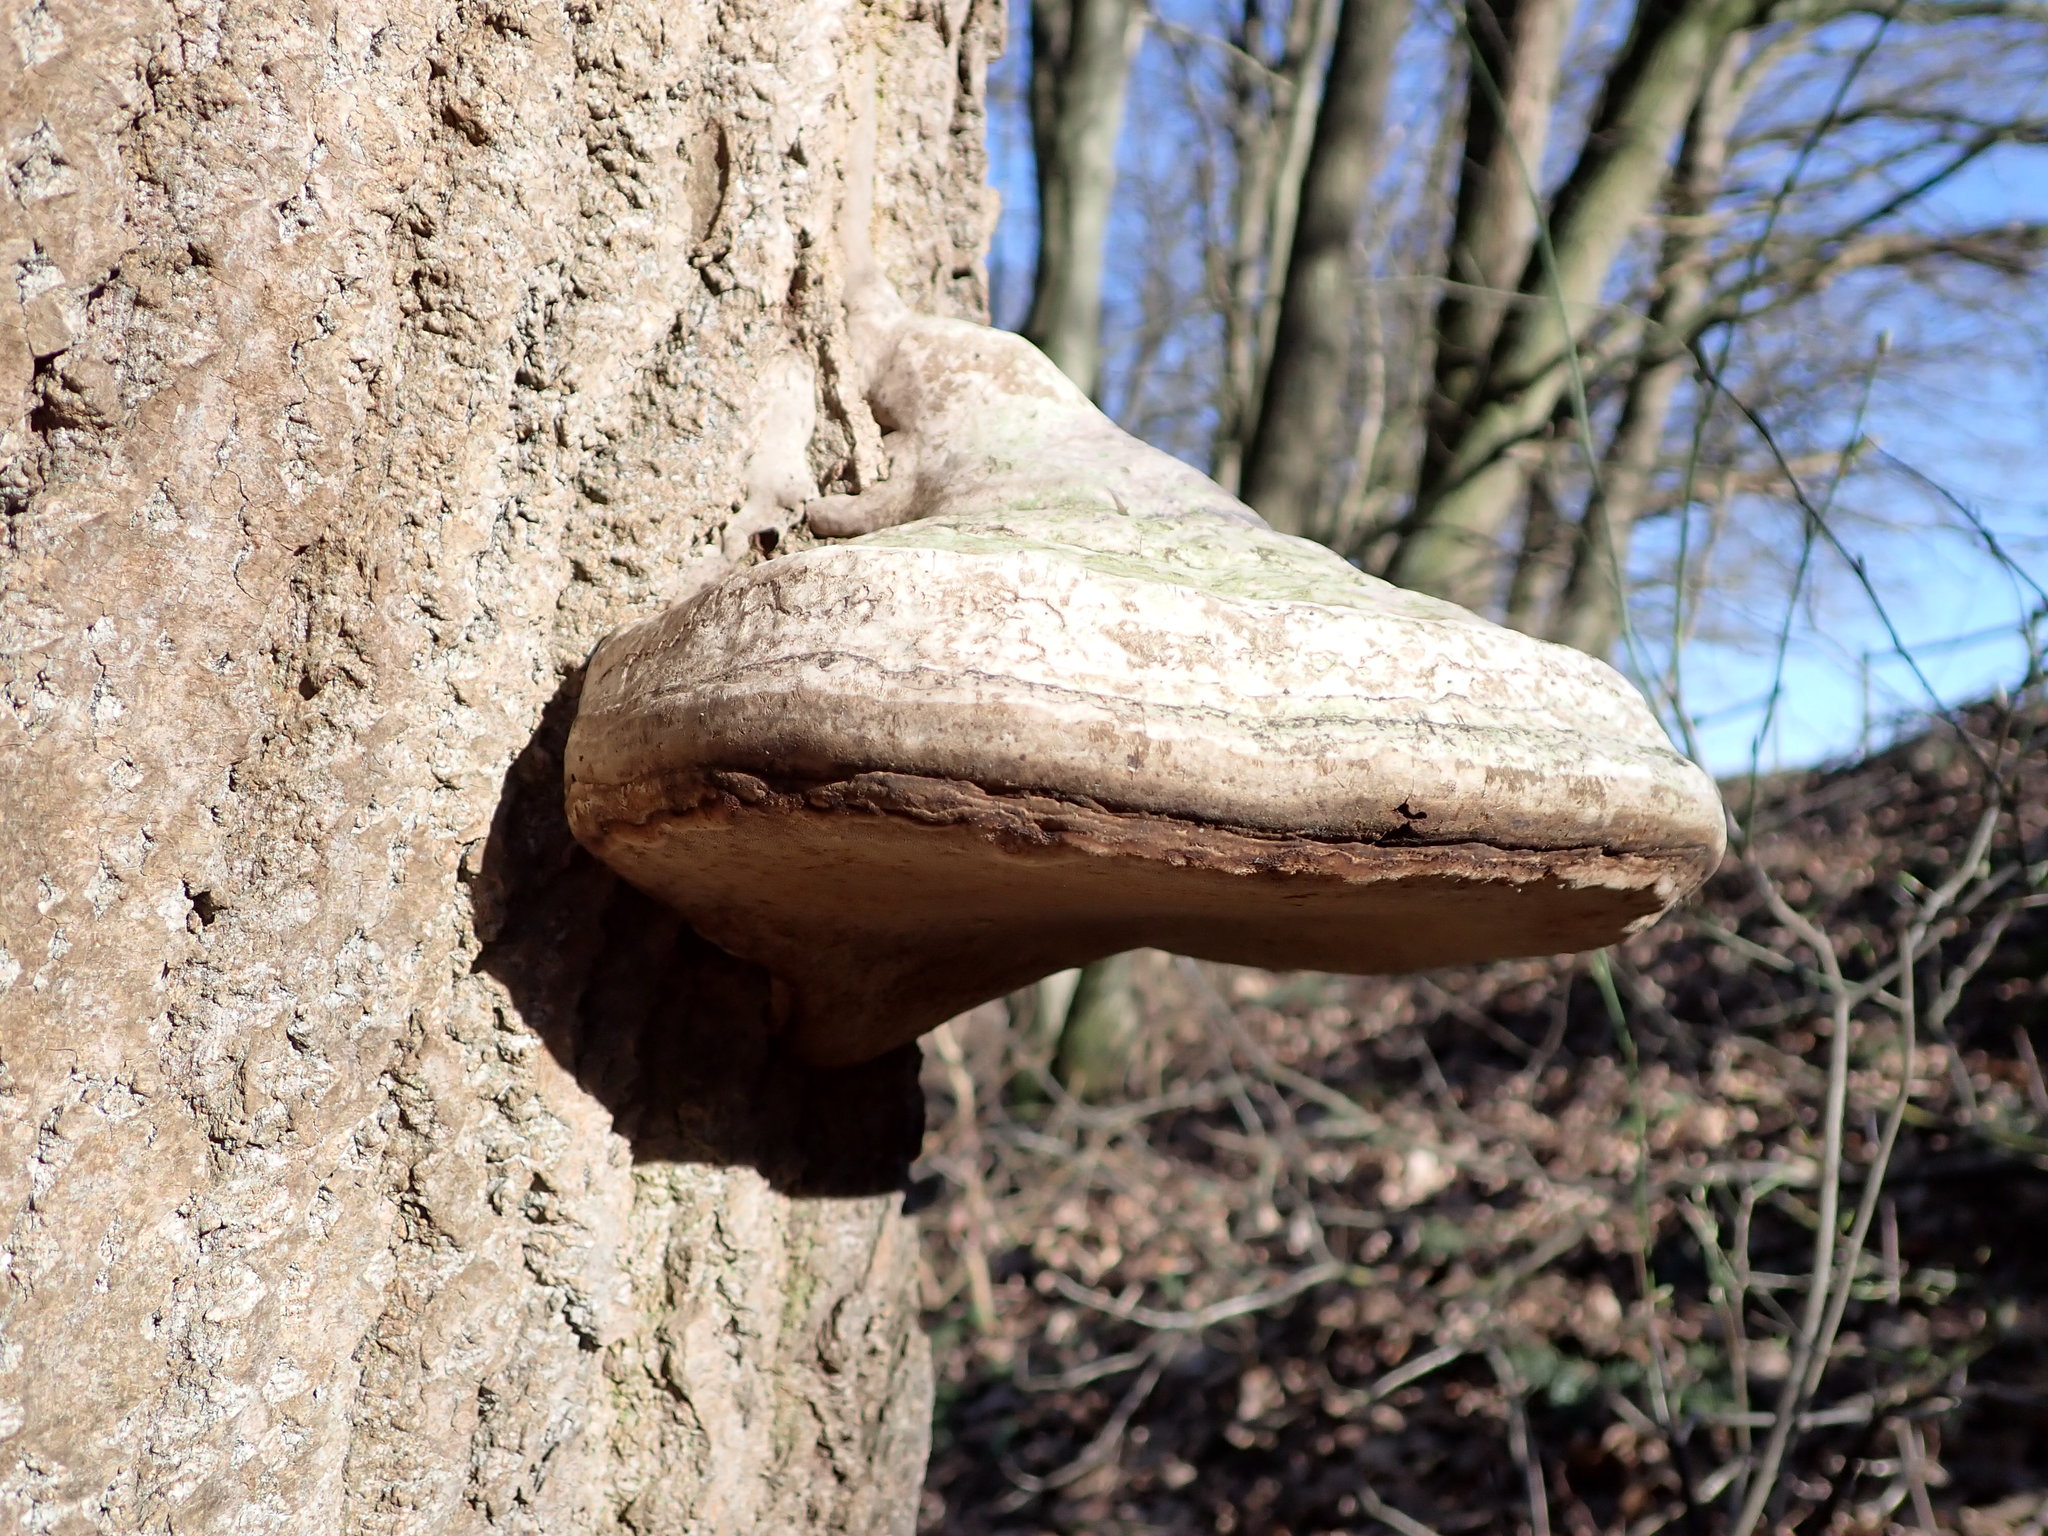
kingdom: Fungi
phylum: Basidiomycota
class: Agaricomycetes
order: Polyporales
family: Polyporaceae
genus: Fomes
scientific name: Fomes fomentarius
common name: Hoof fungus
